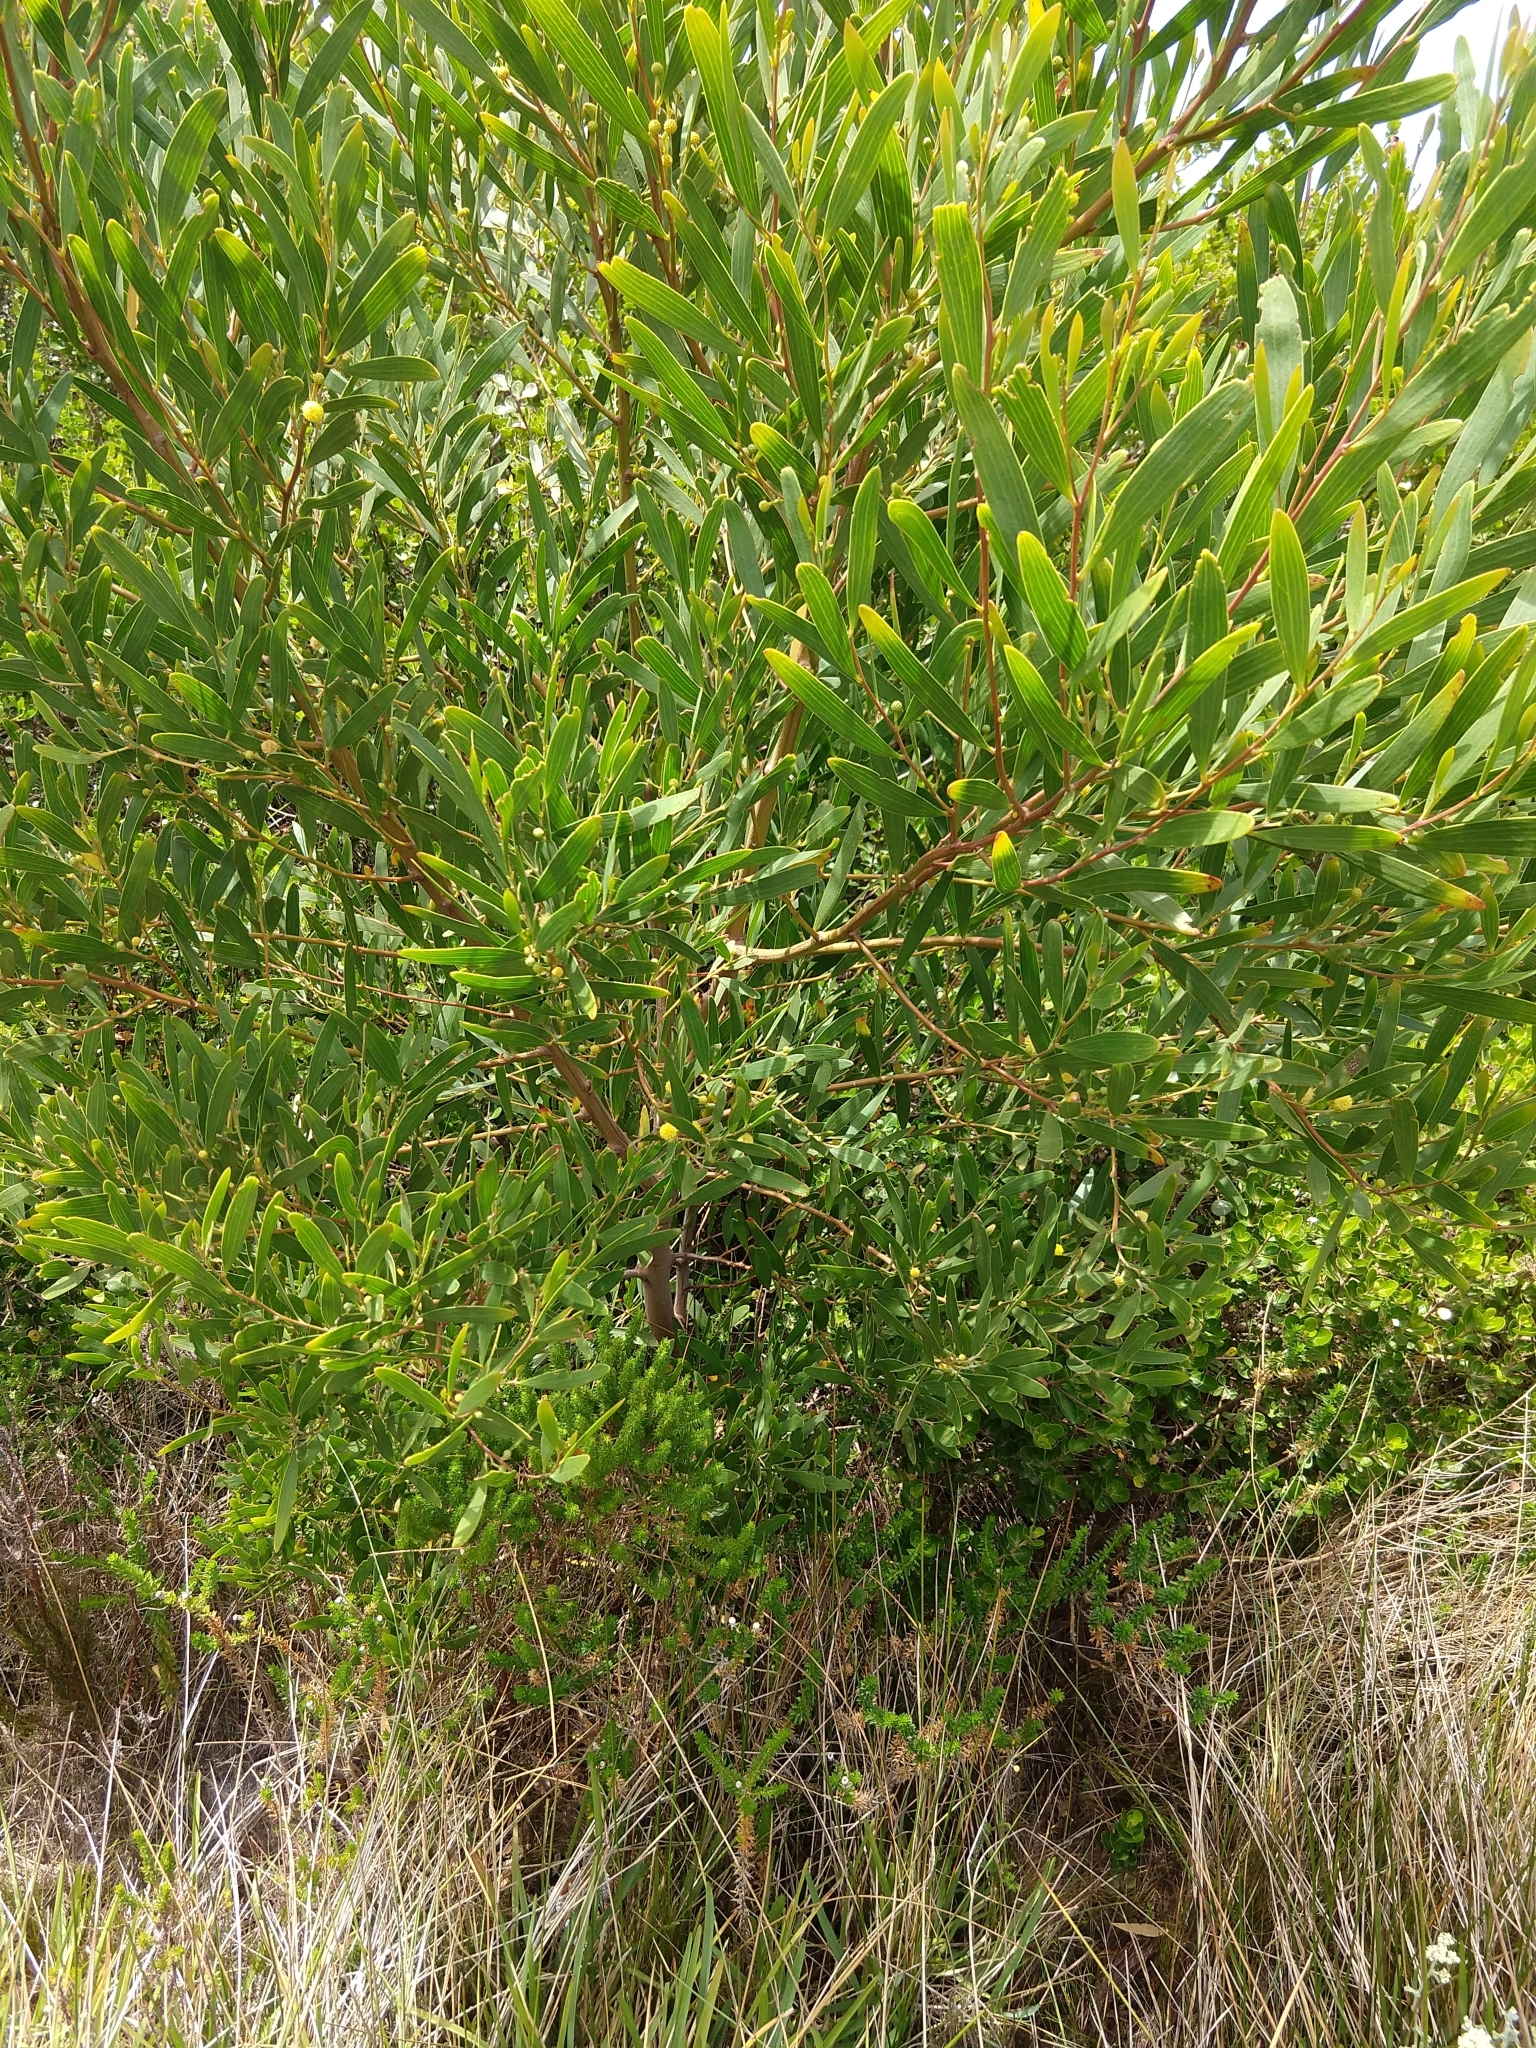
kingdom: Plantae
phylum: Tracheophyta
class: Magnoliopsida
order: Fabales
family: Fabaceae
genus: Acacia
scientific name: Acacia cyclops
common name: Coastal wattle
